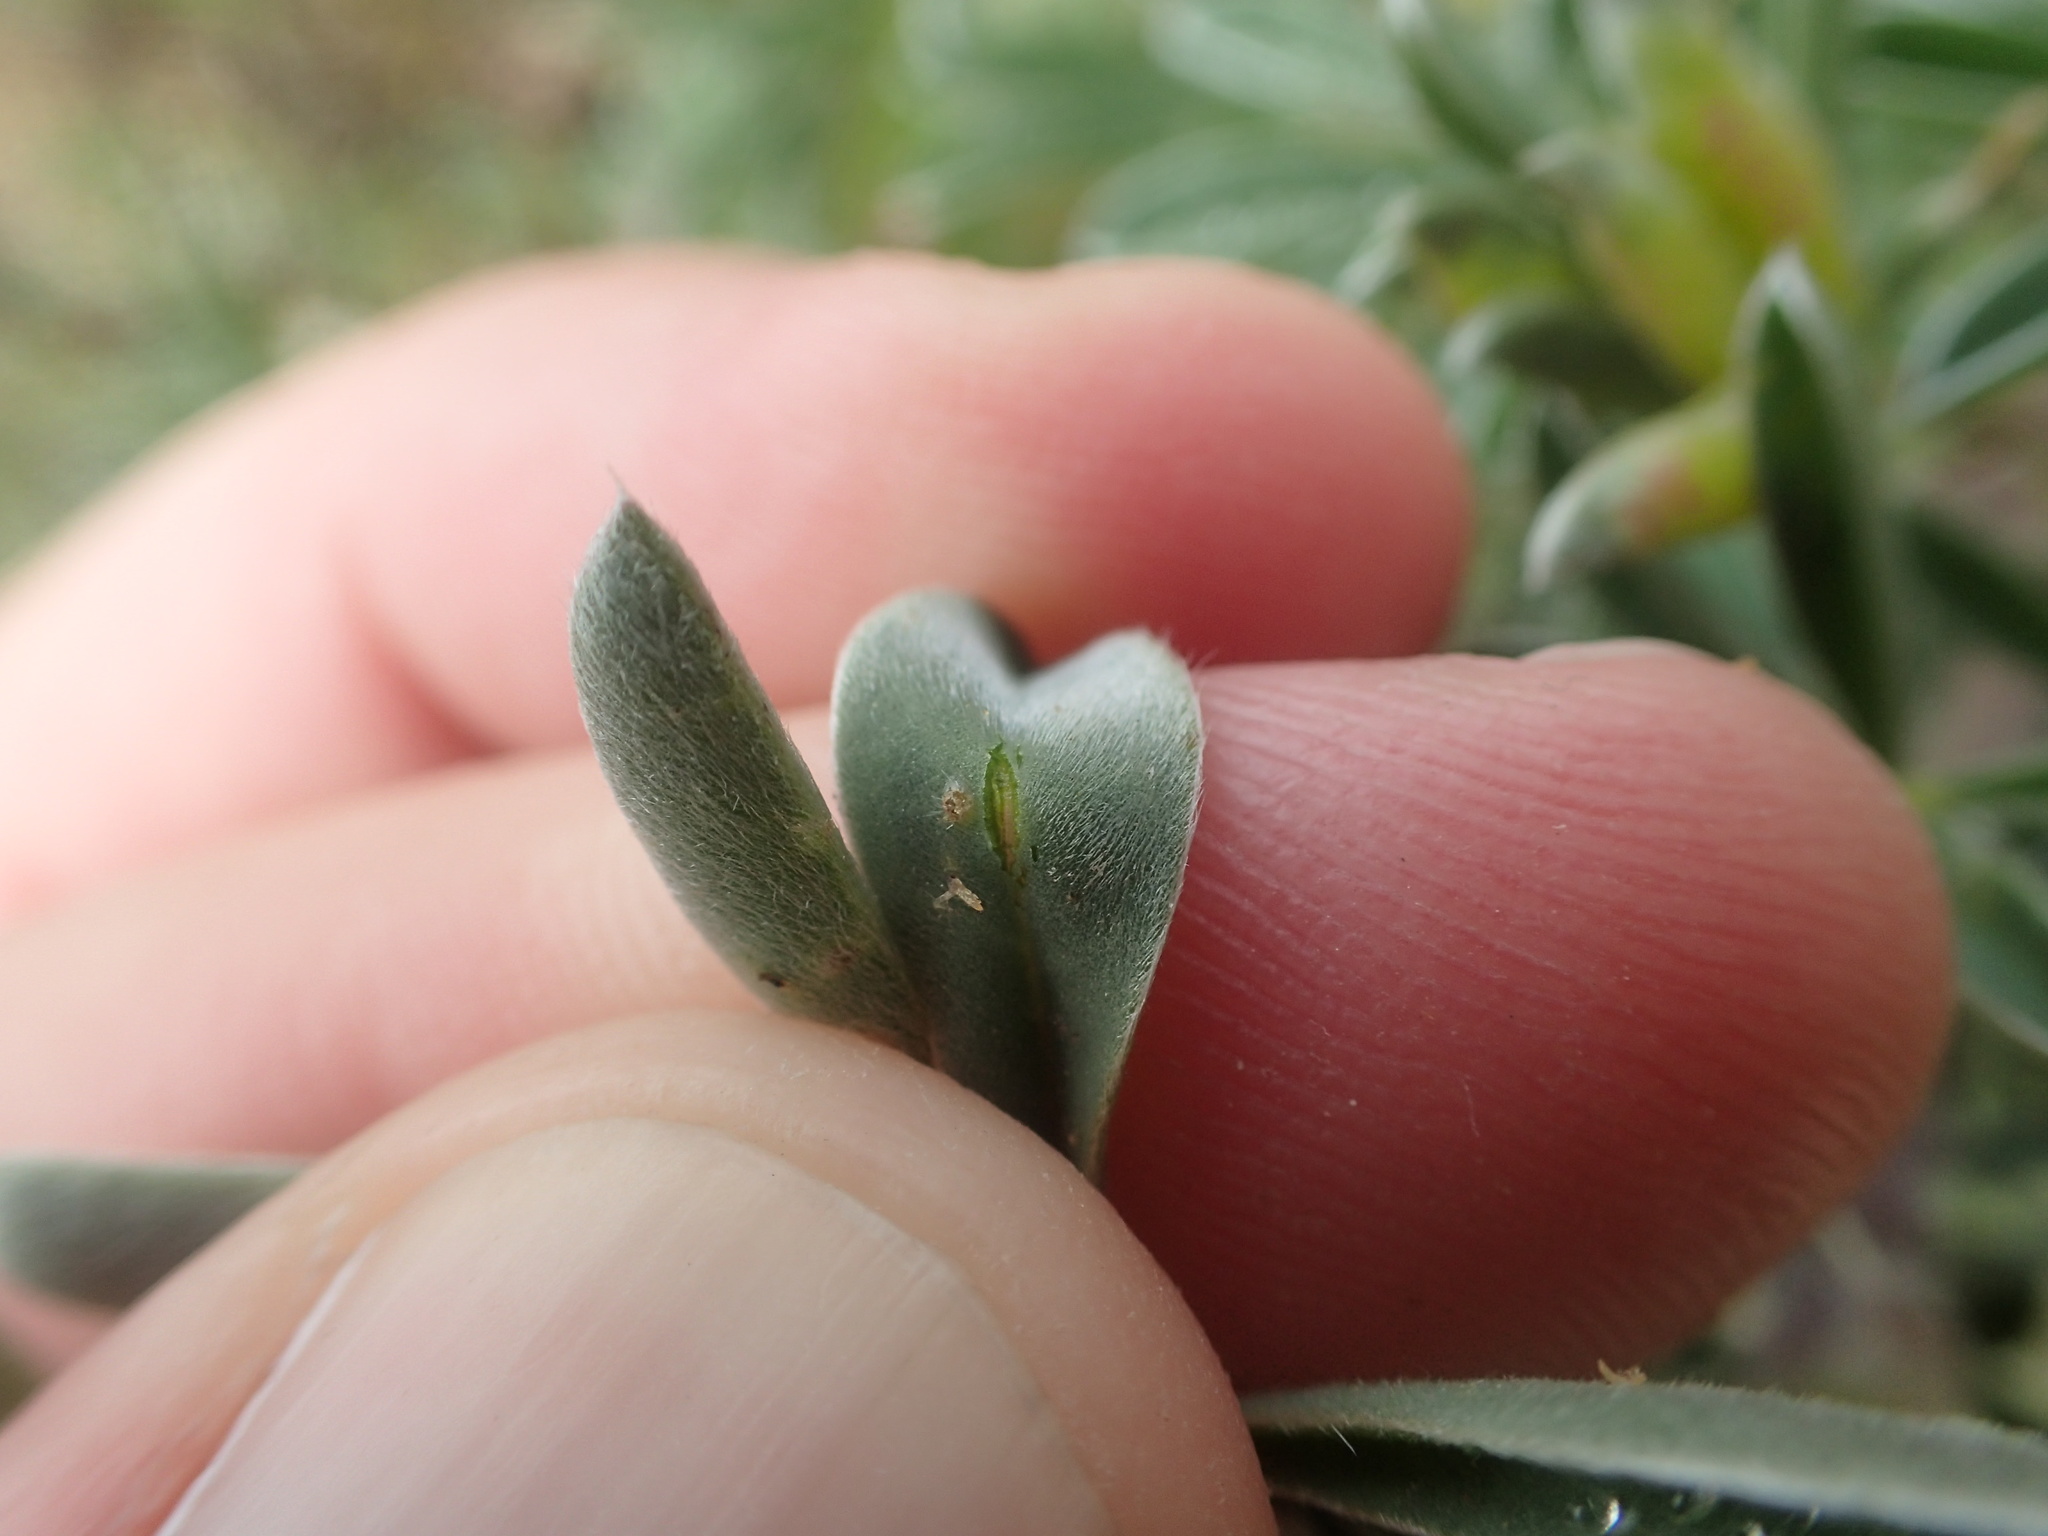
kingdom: Plantae
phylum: Tracheophyta
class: Magnoliopsida
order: Fabales
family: Fabaceae
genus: Lupinus
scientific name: Lupinus arboreus
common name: Yellow bush lupine
